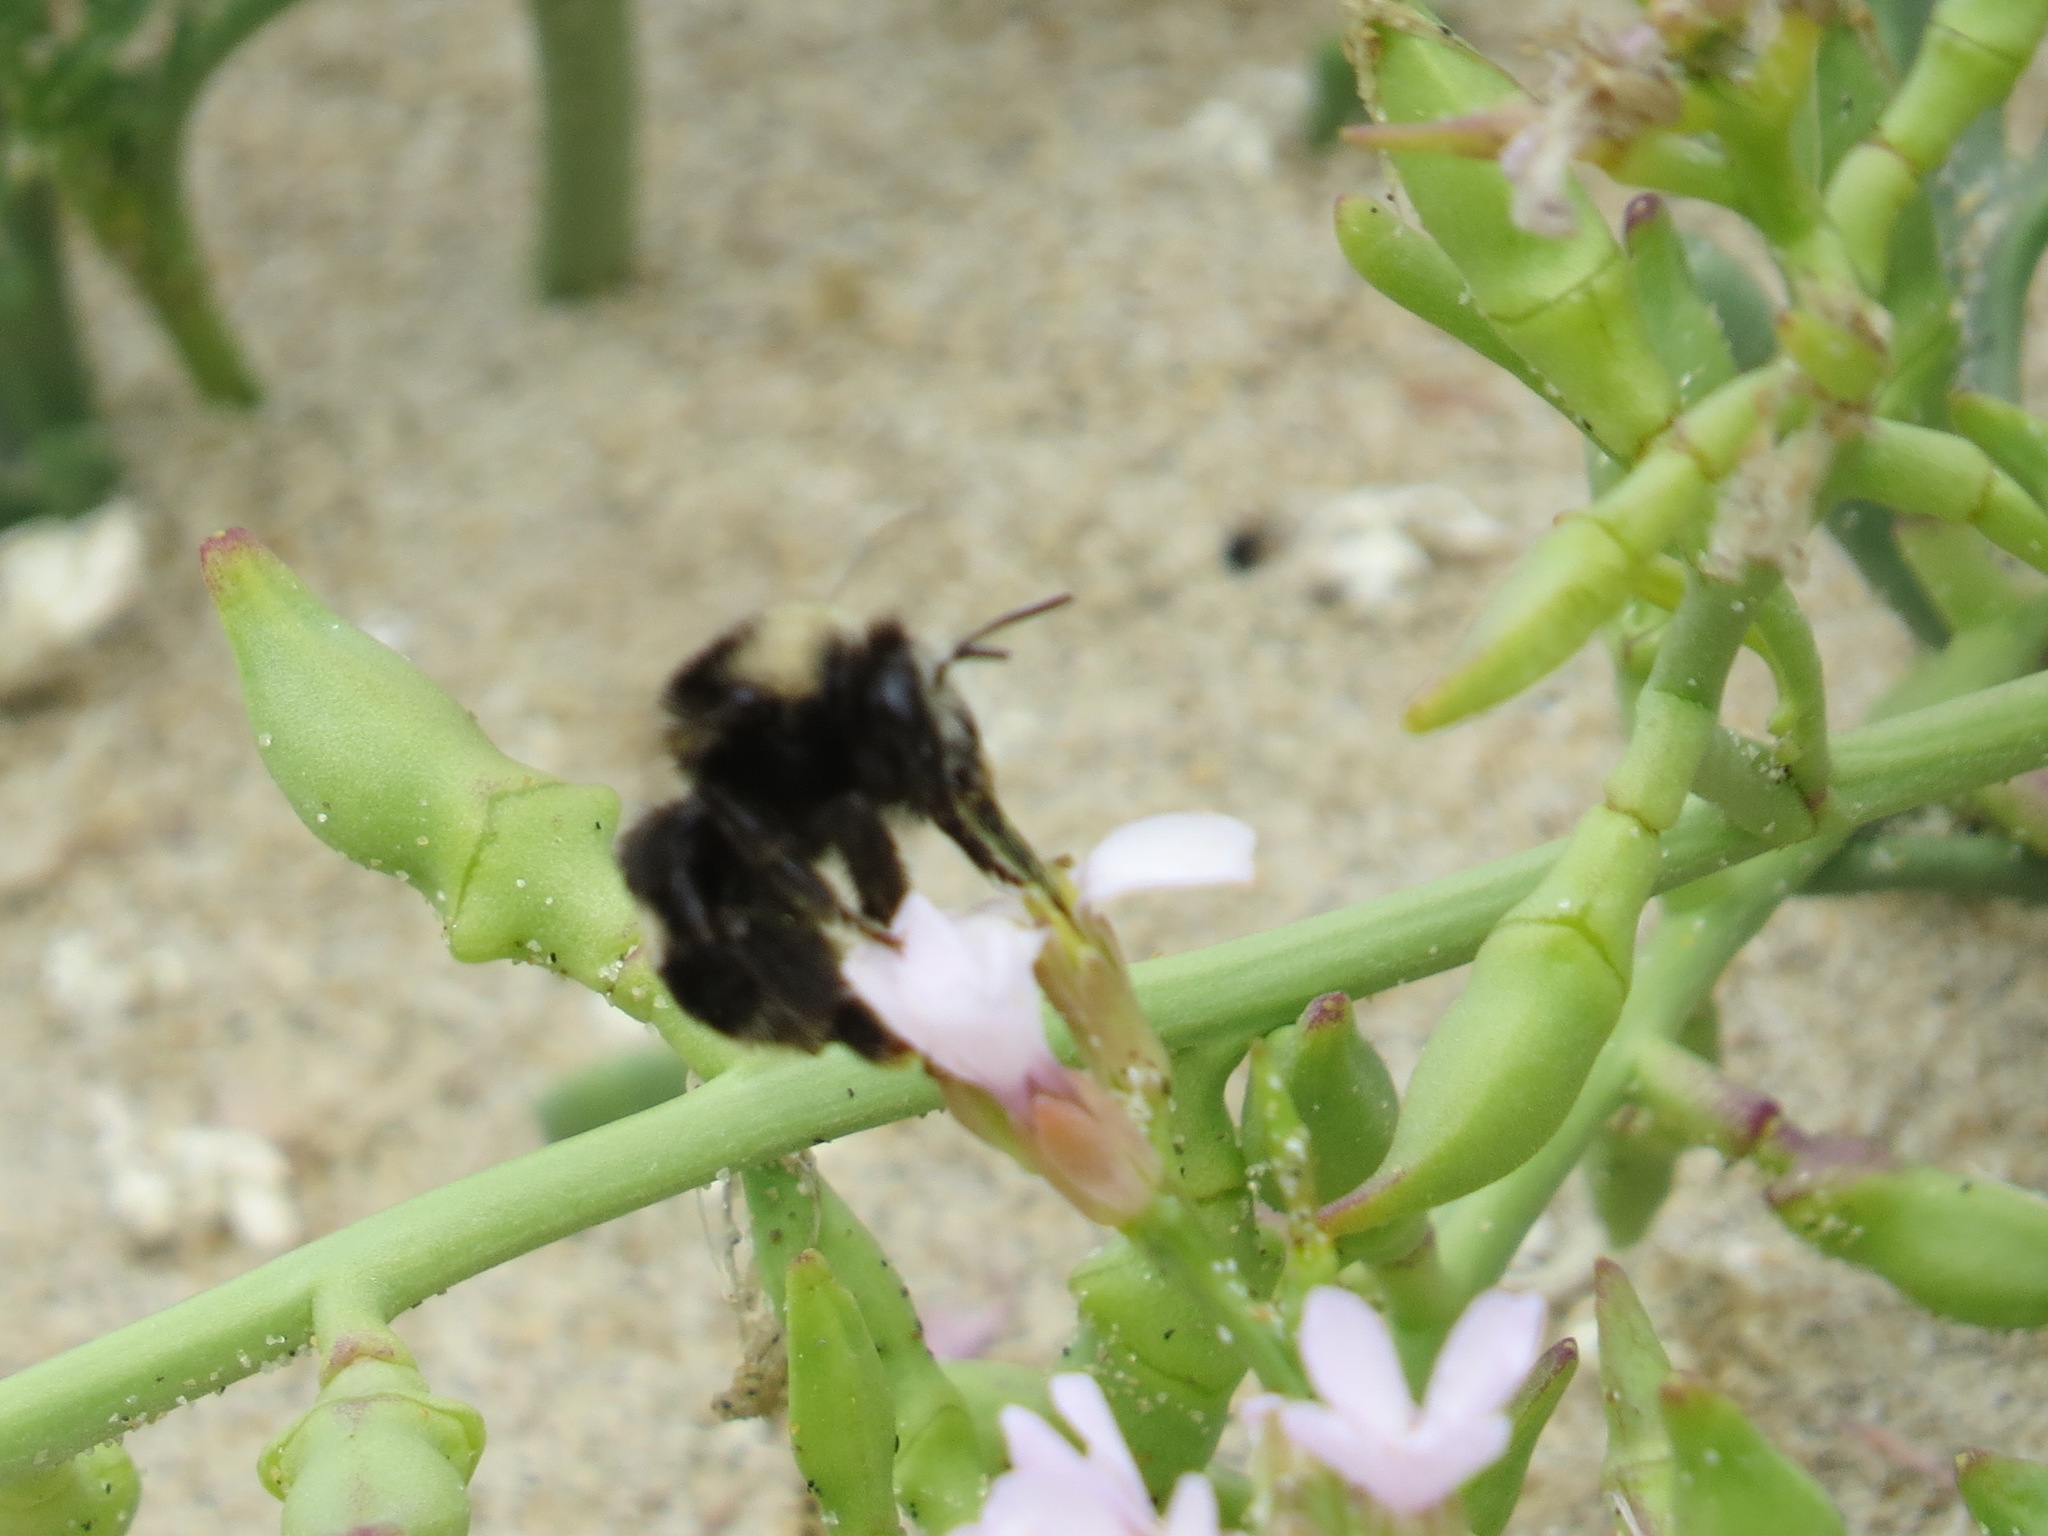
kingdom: Plantae
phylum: Tracheophyta
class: Magnoliopsida
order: Brassicales
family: Brassicaceae
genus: Cakile
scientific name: Cakile maritima
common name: Sea rocket
